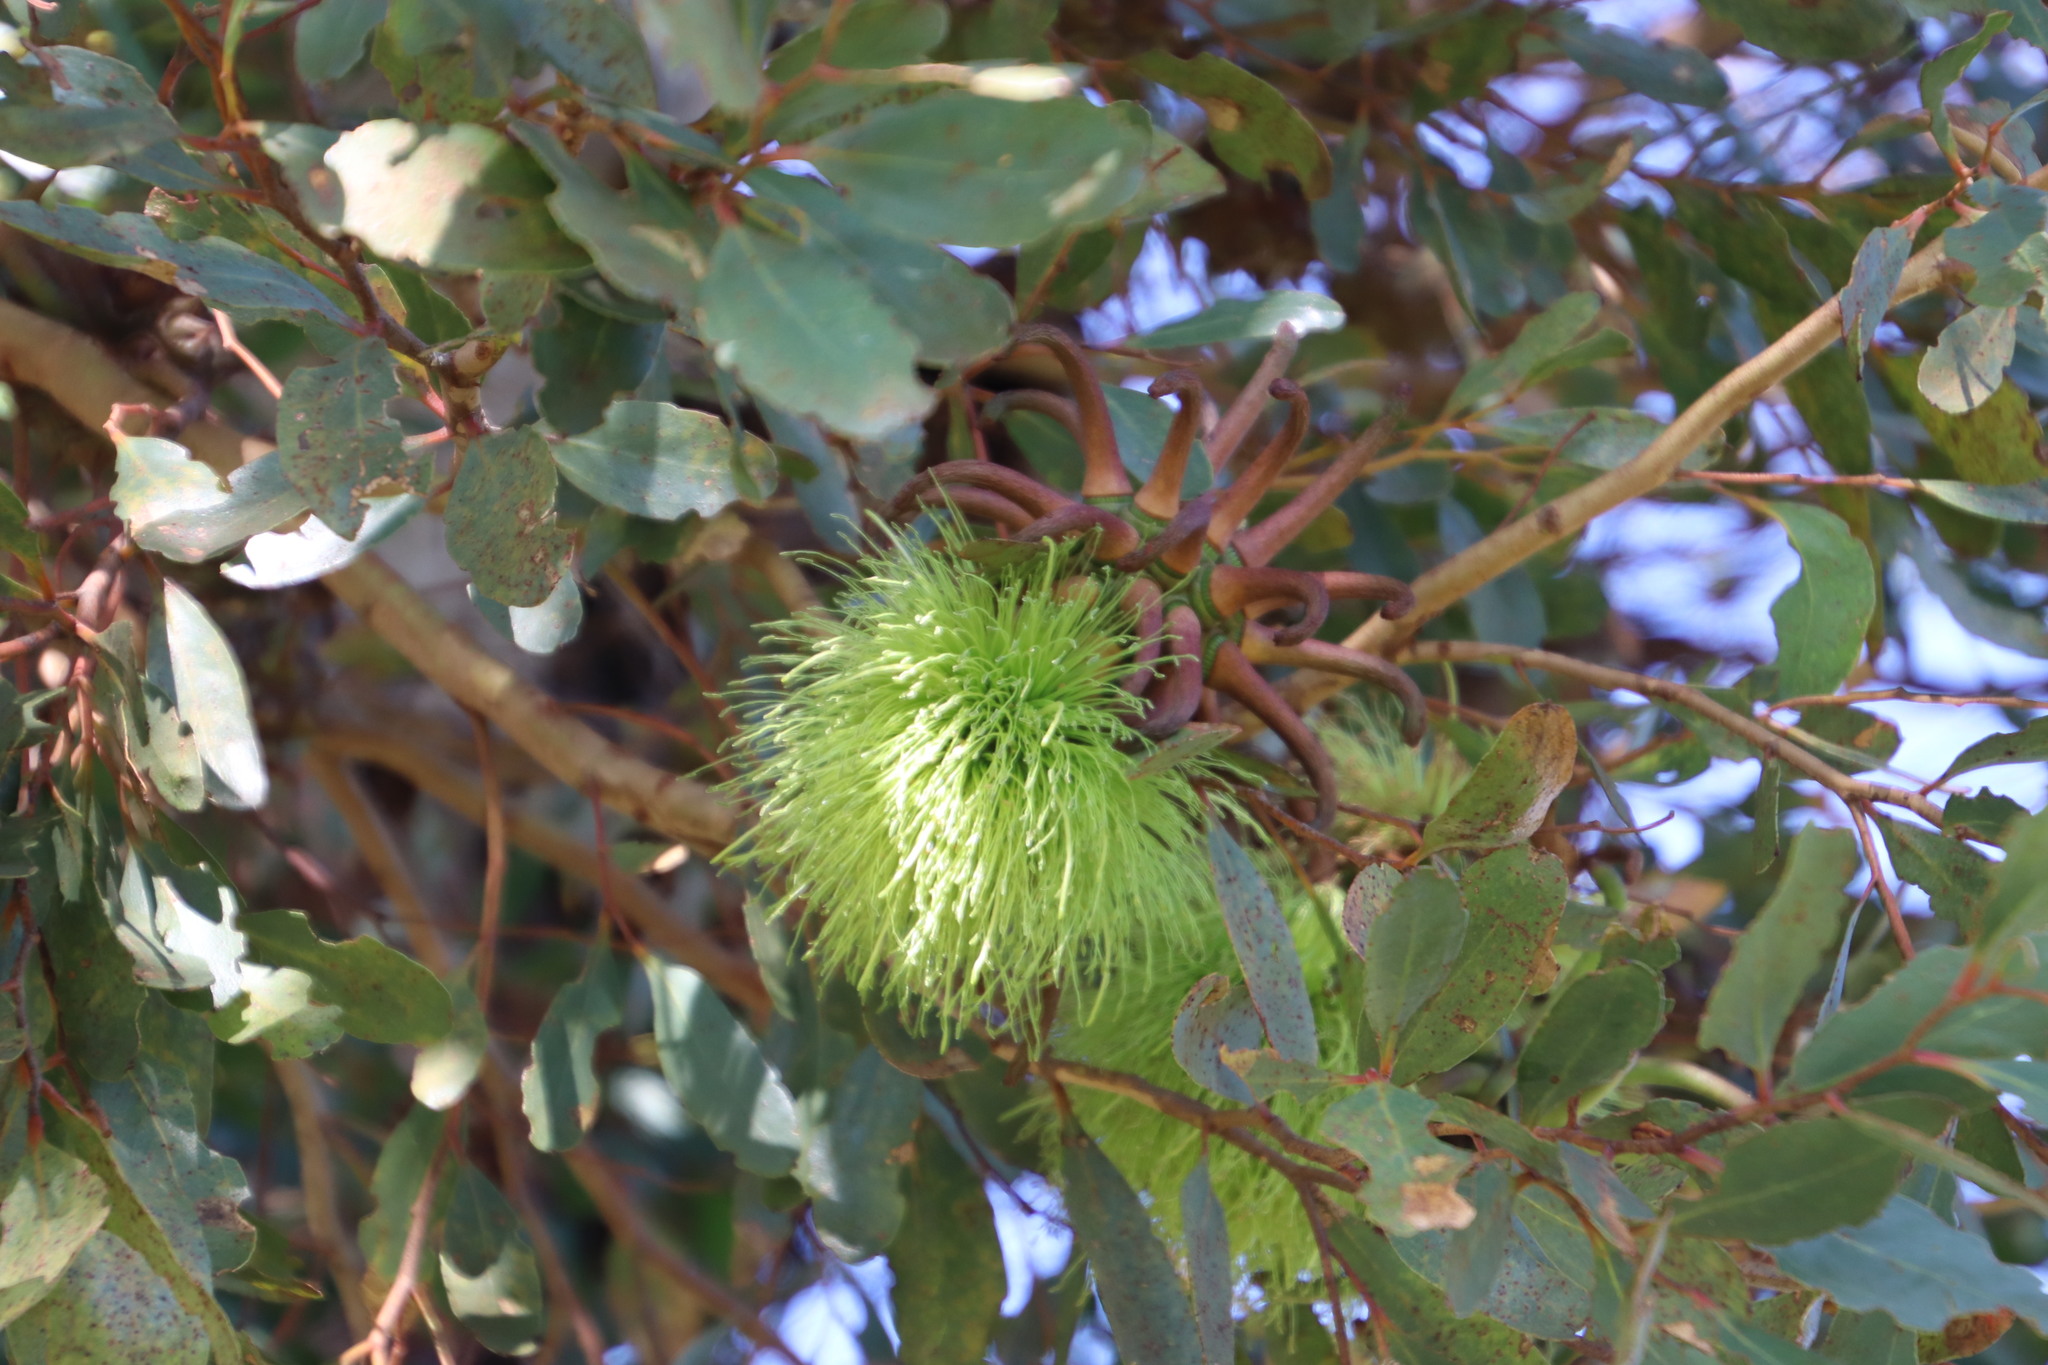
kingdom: Plantae
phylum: Tracheophyta
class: Magnoliopsida
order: Myrtales
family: Myrtaceae
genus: Eucalyptus
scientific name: Eucalyptus conferruminata
